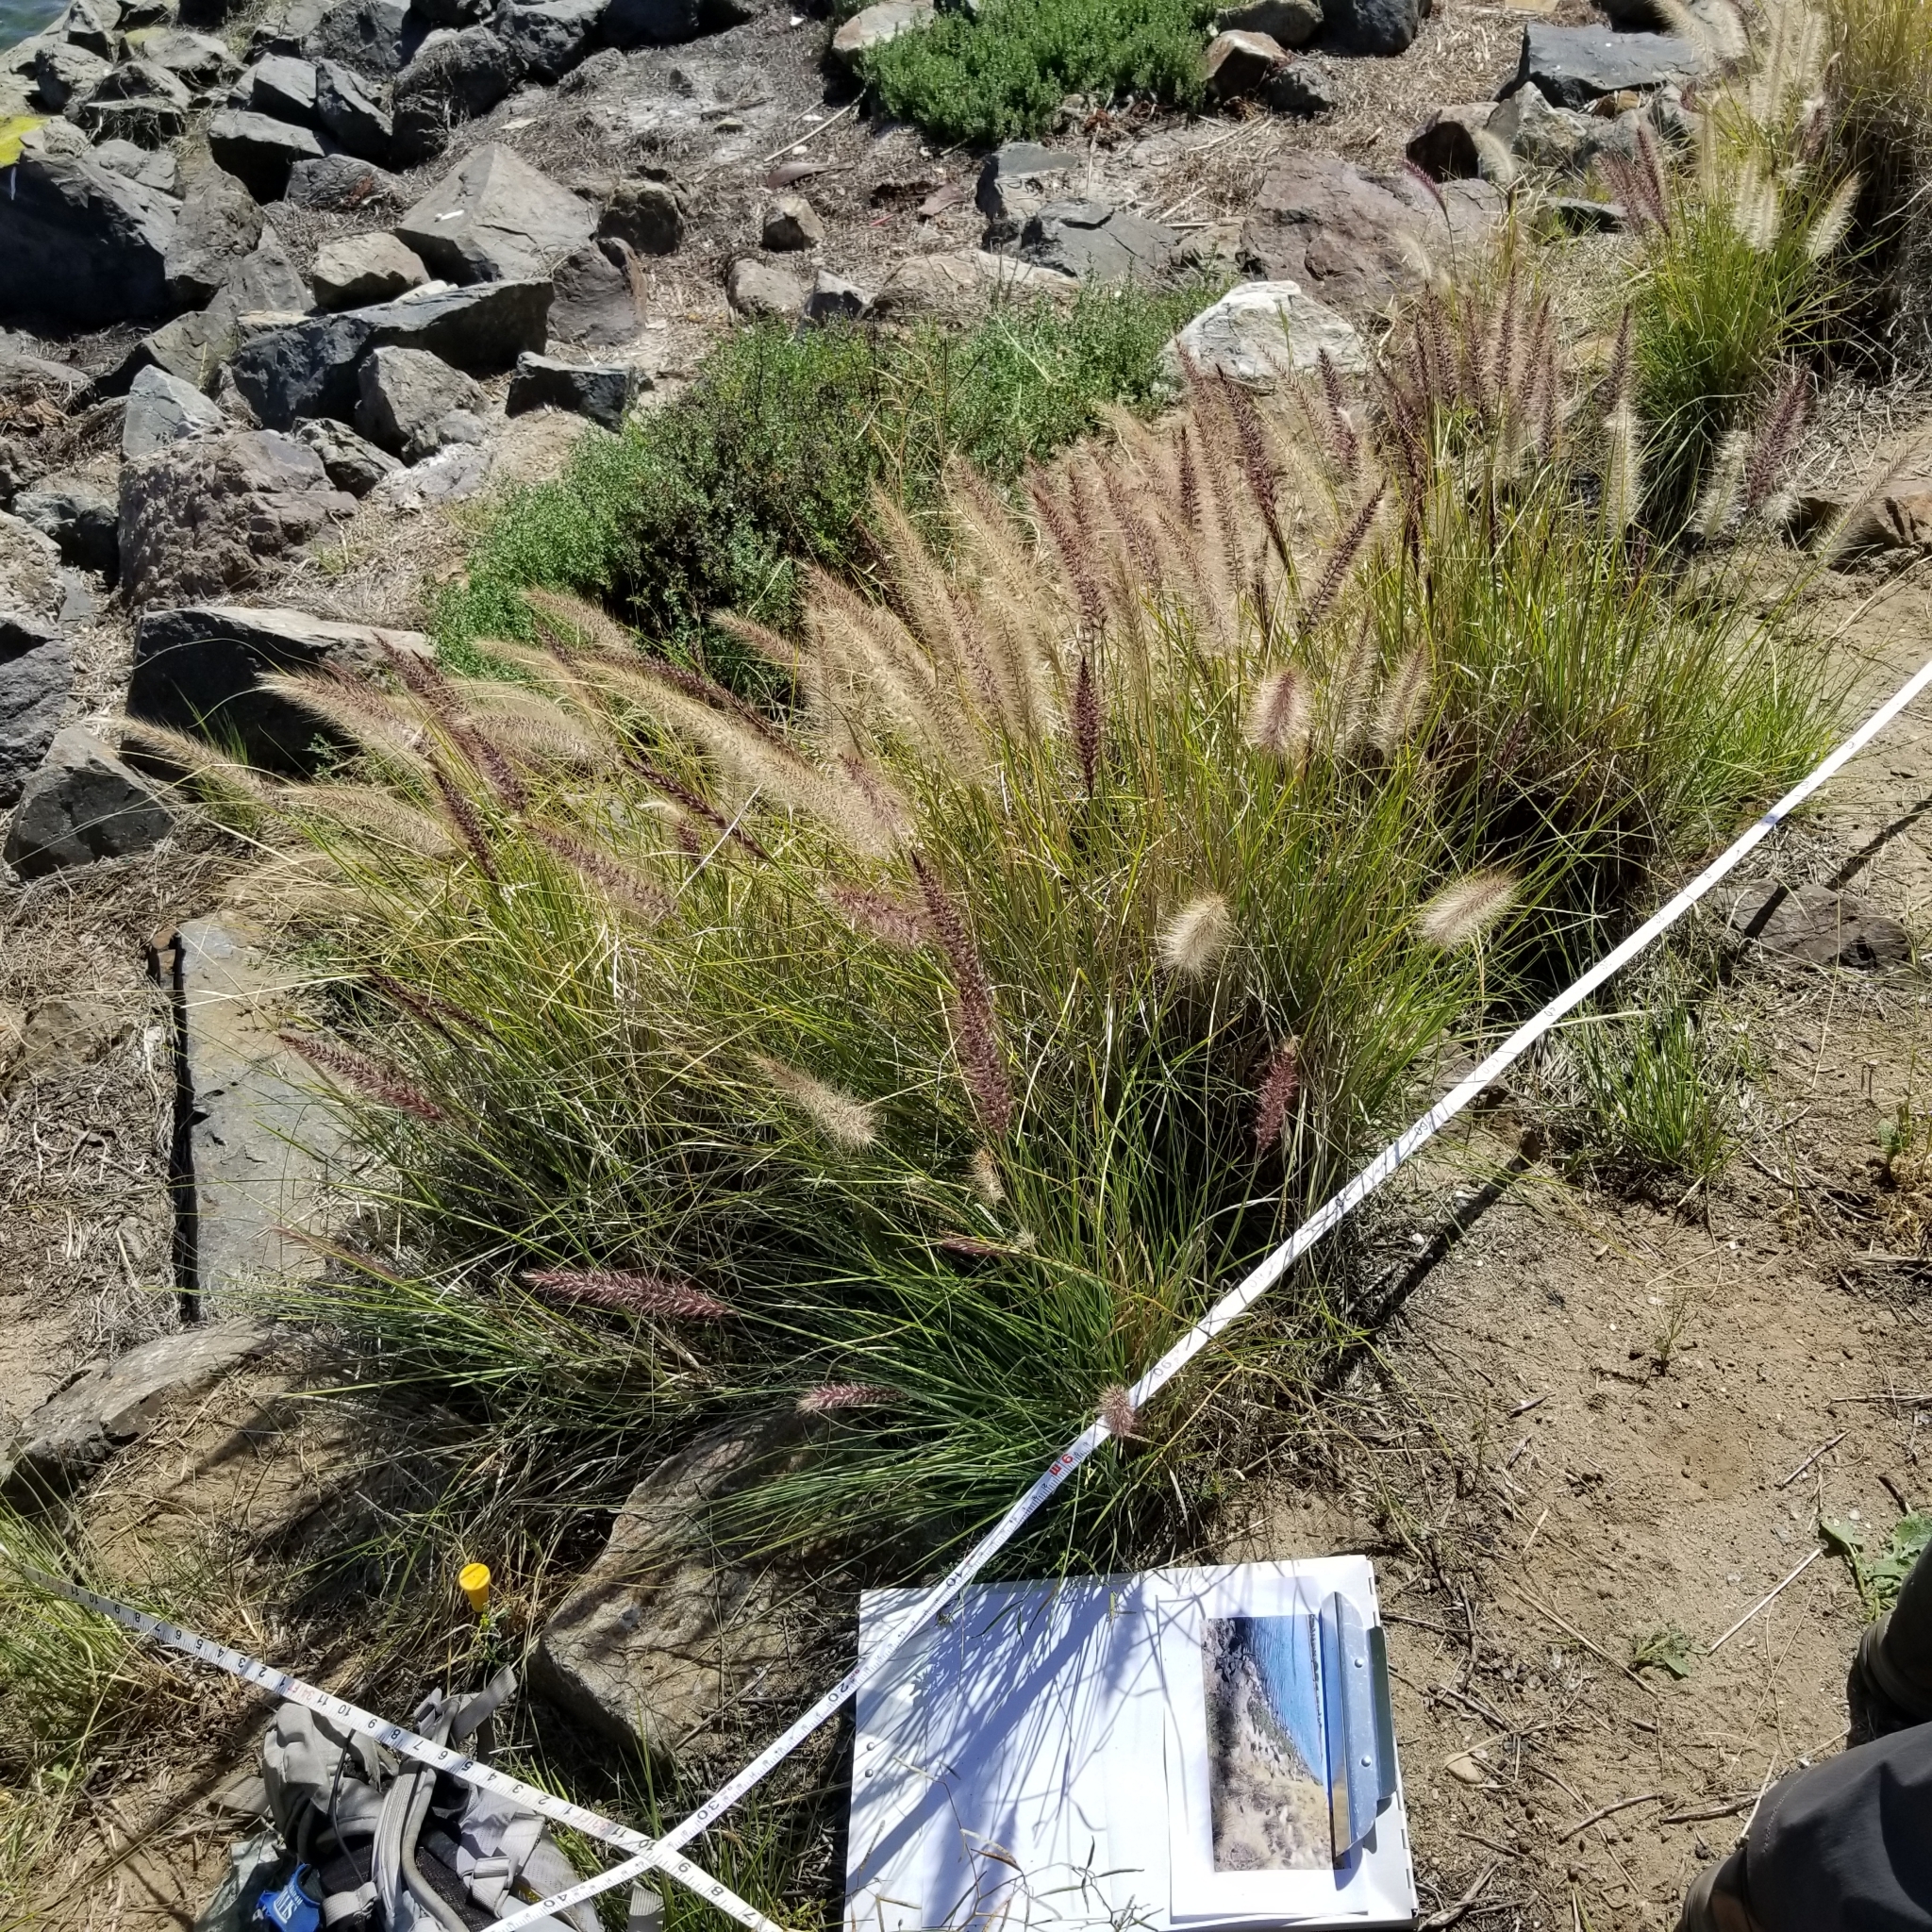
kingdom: Plantae
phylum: Tracheophyta
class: Liliopsida
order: Poales
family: Poaceae
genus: Cenchrus
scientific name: Cenchrus setaceus
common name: Crimson fountaingrass
